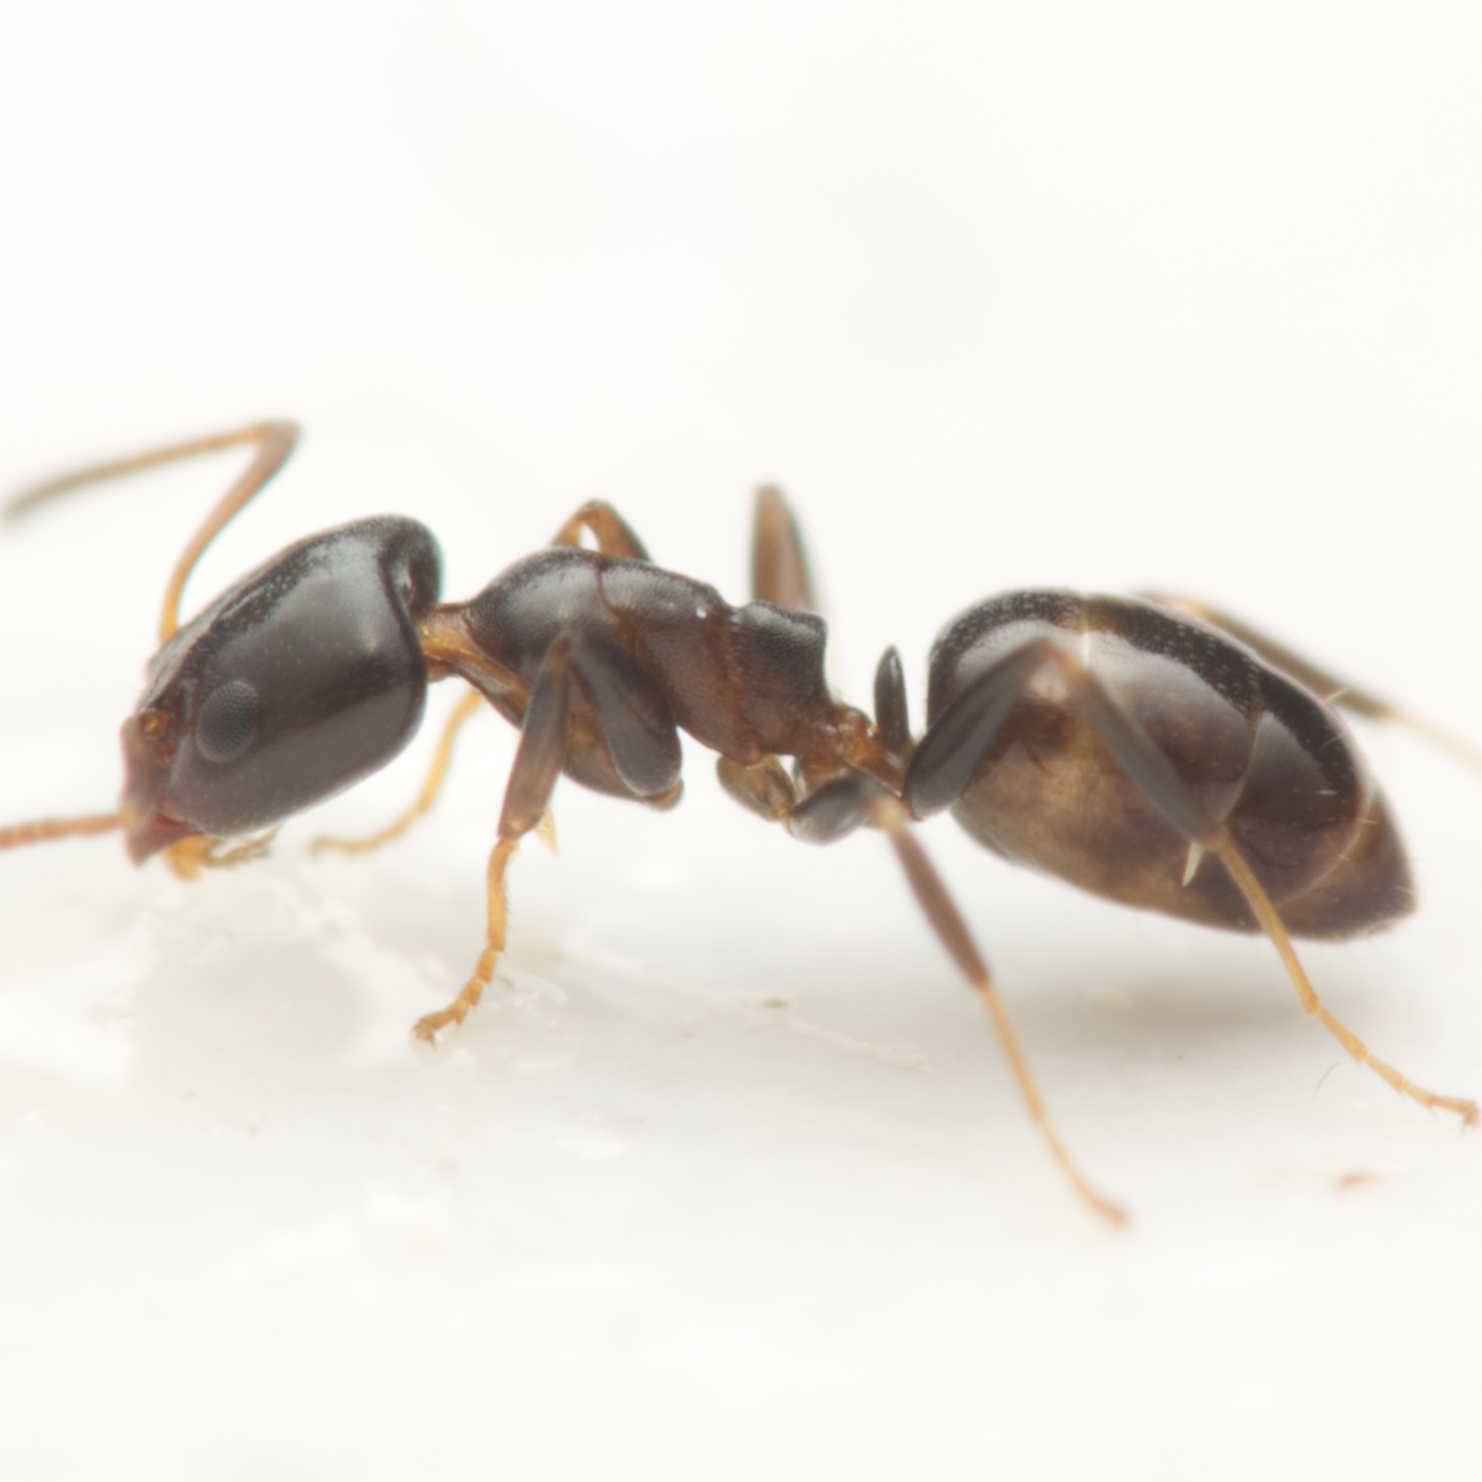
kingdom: Animalia
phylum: Arthropoda
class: Insecta
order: Hymenoptera
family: Formicidae
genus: Ochetellus
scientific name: Ochetellus glaber
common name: Ant
